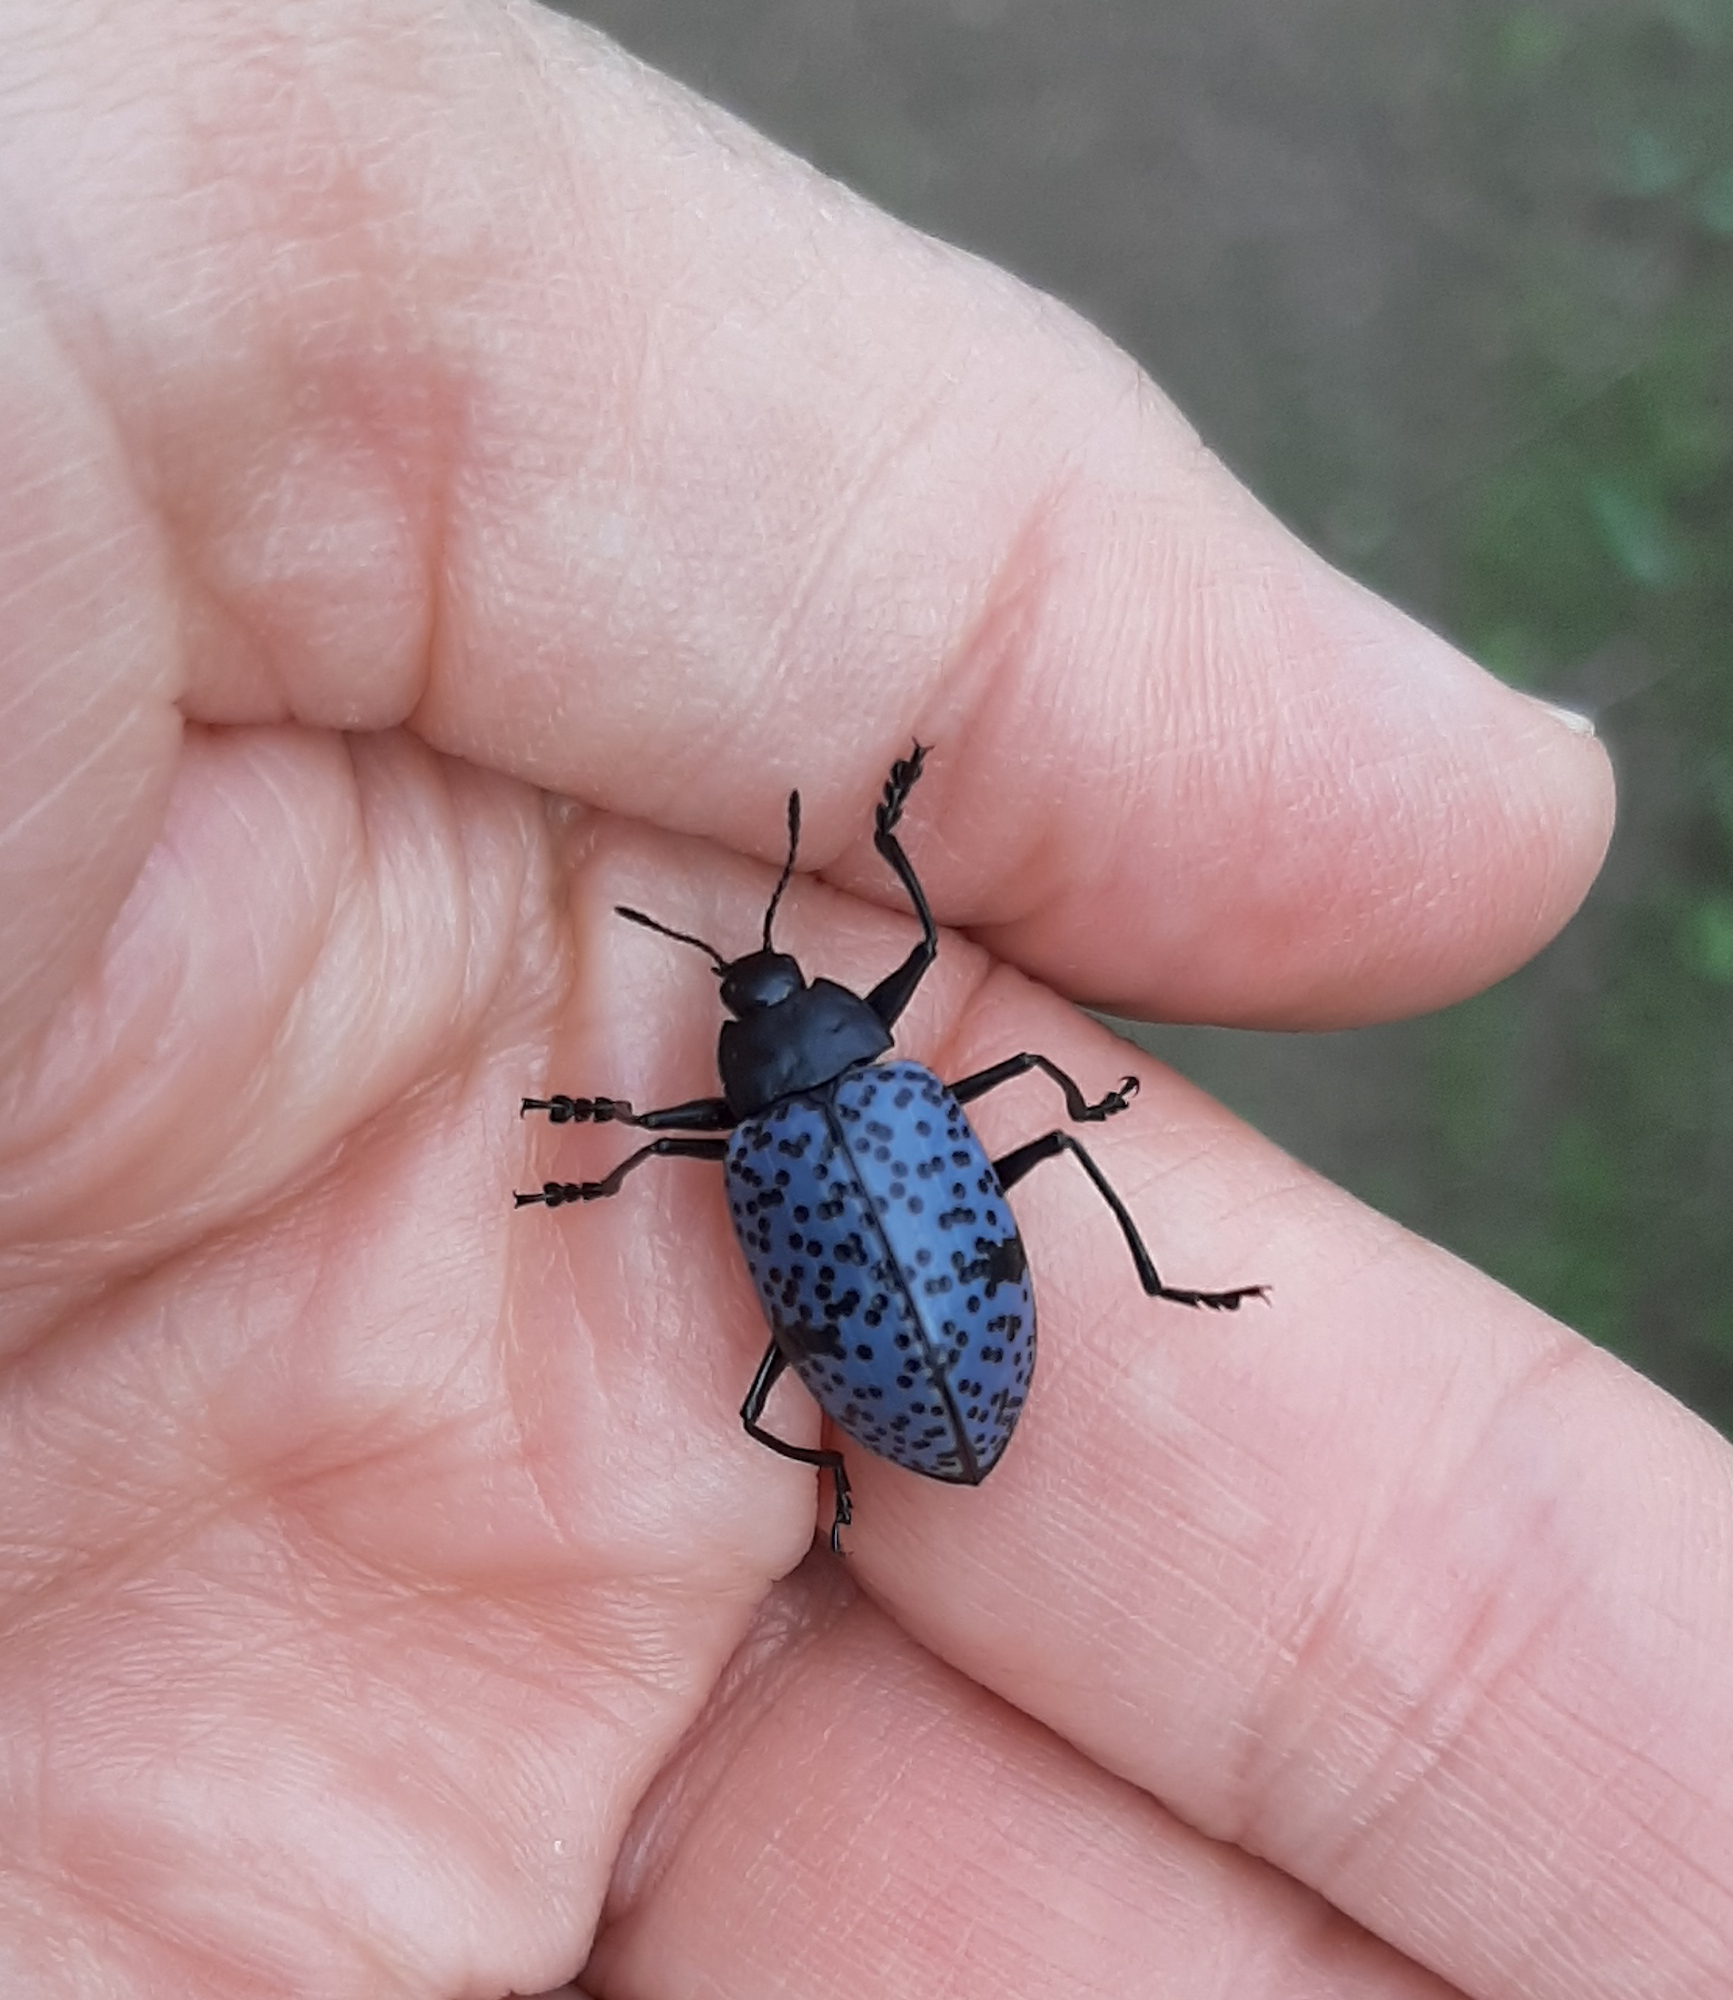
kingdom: Animalia
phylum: Arthropoda
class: Insecta
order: Coleoptera
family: Erotylidae
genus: Gibbifer
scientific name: Gibbifer californicus
